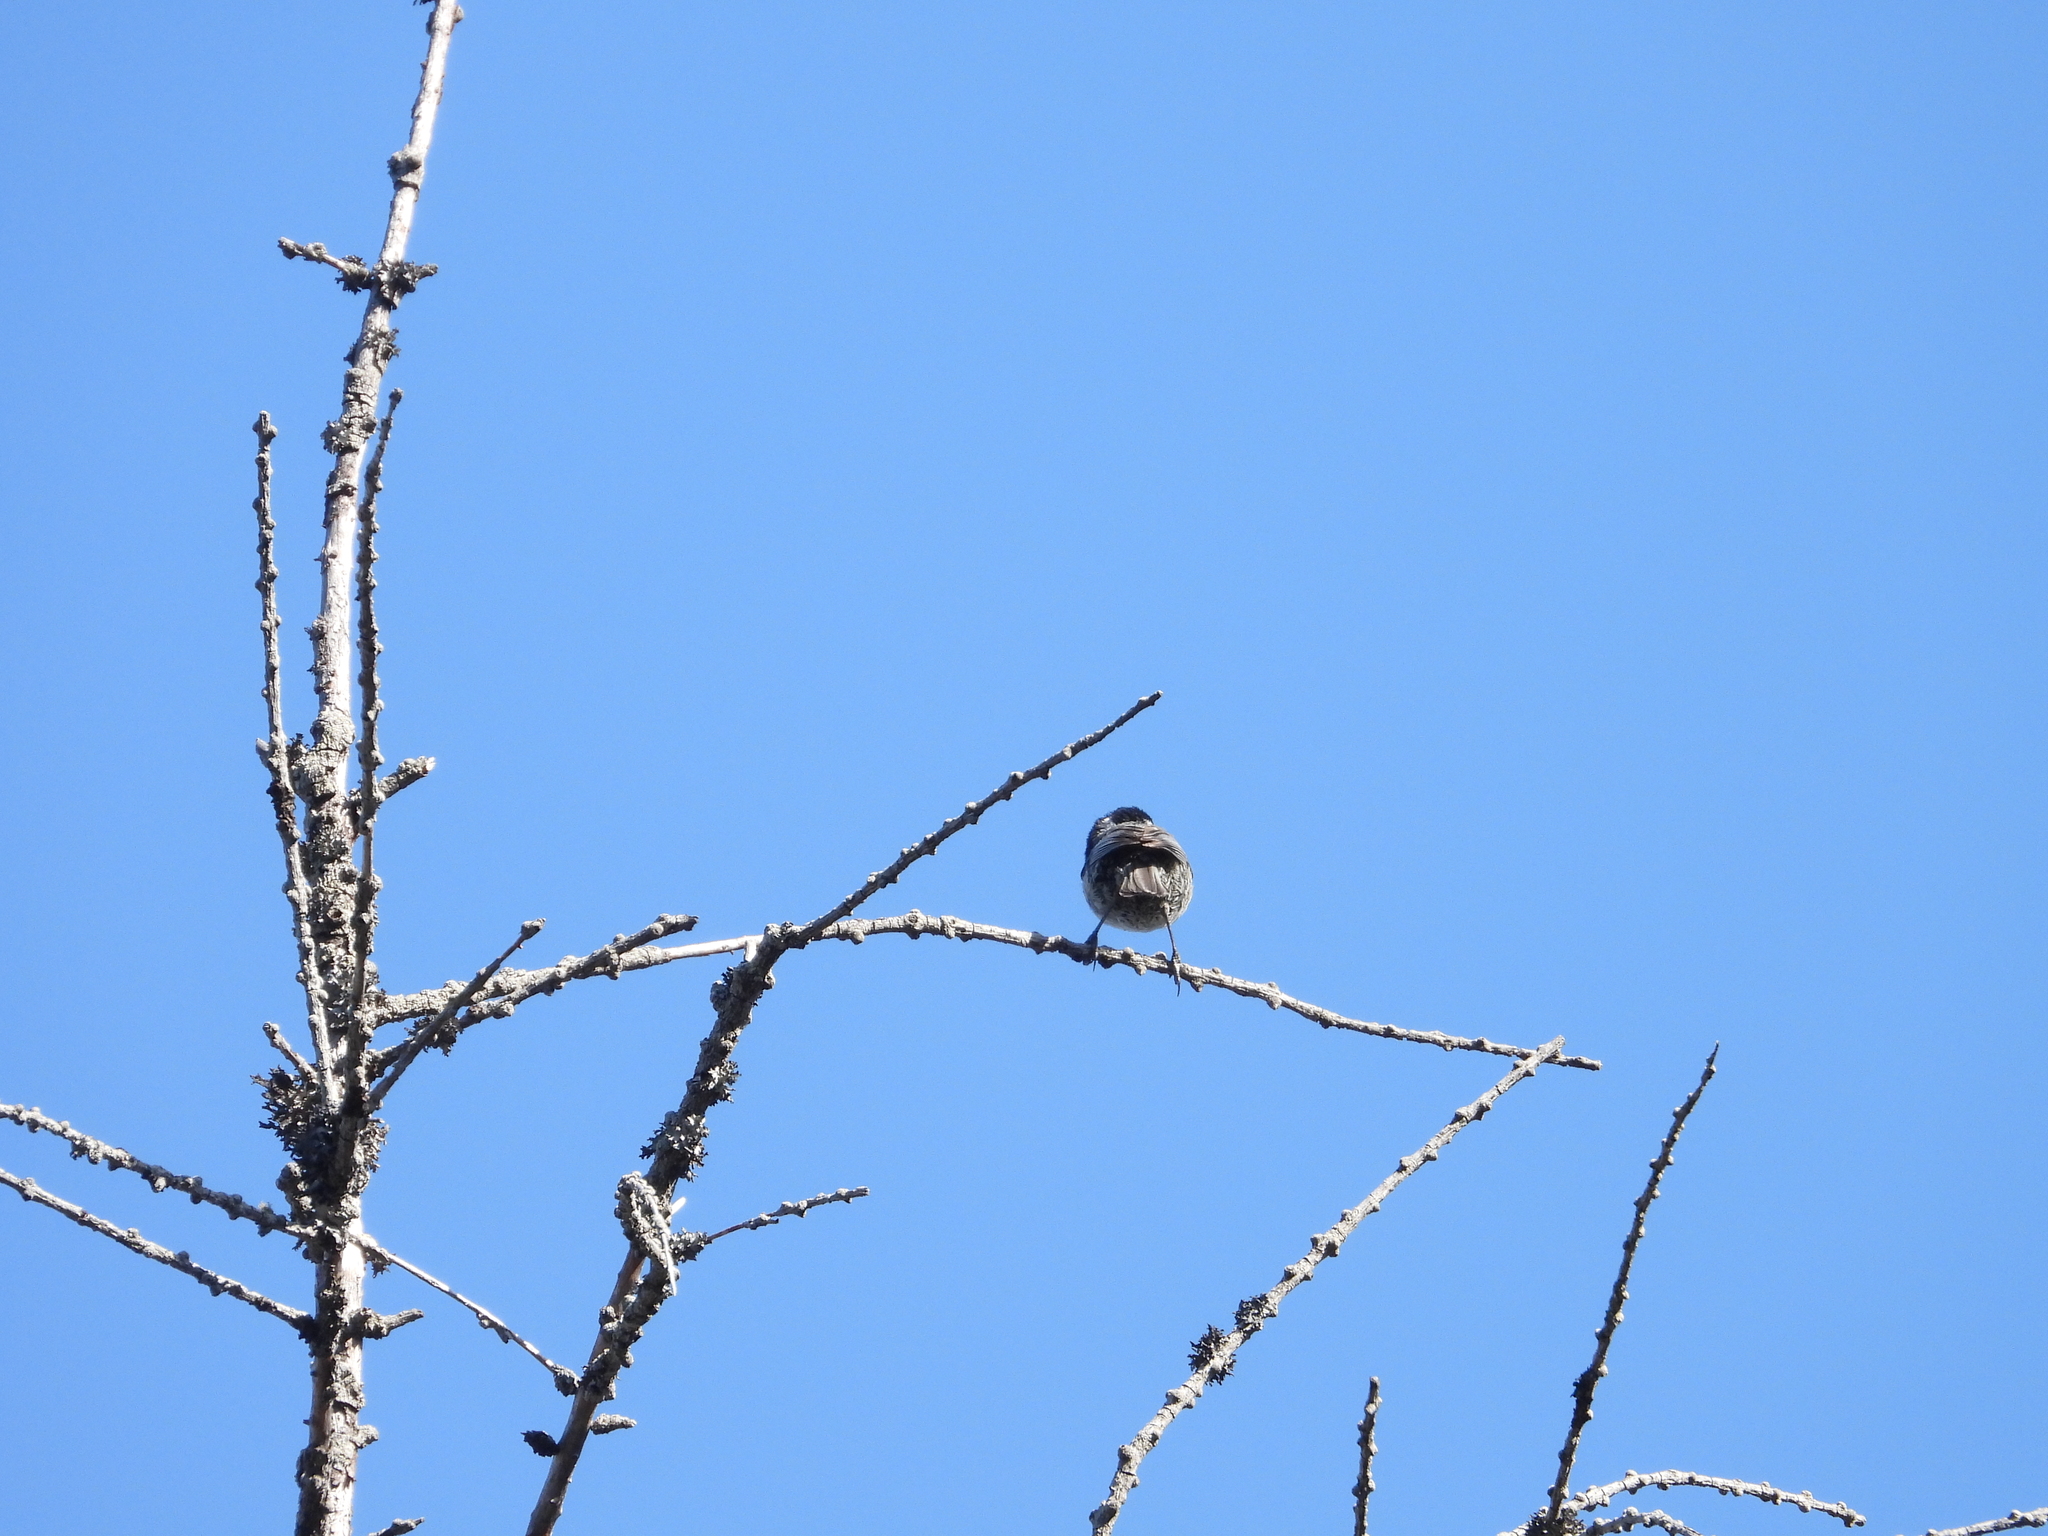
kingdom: Animalia
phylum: Chordata
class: Aves
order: Passeriformes
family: Paridae
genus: Periparus
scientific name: Periparus ater
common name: Coal tit
